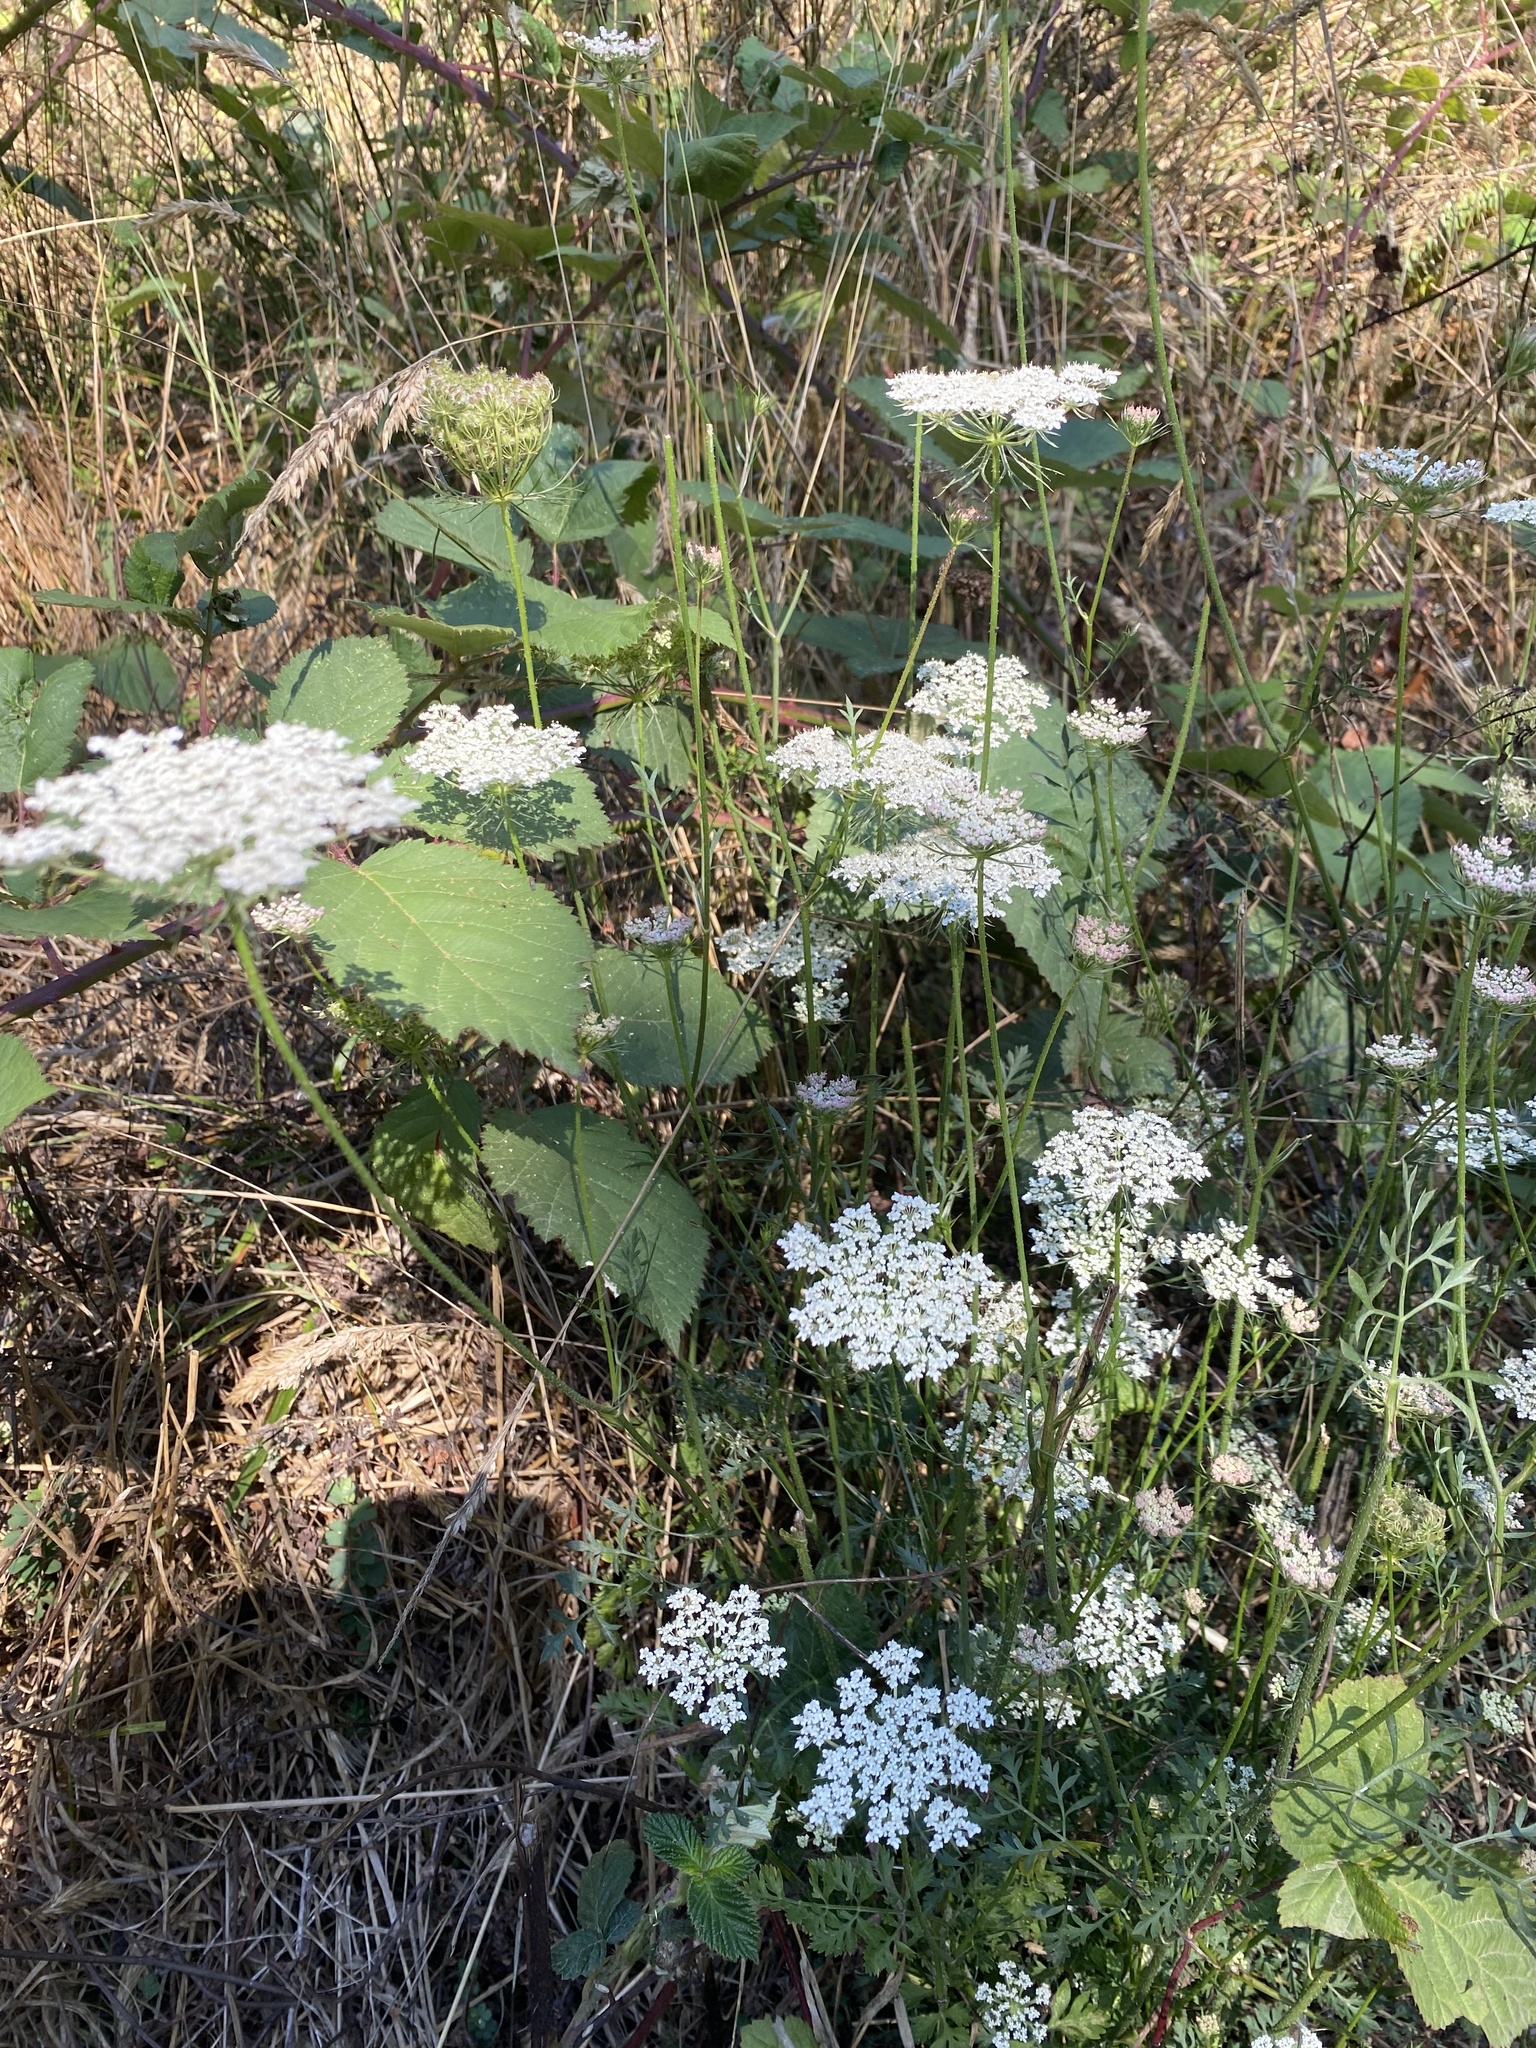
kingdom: Plantae
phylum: Tracheophyta
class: Magnoliopsida
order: Apiales
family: Apiaceae
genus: Daucus
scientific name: Daucus carota
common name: Wild carrot
